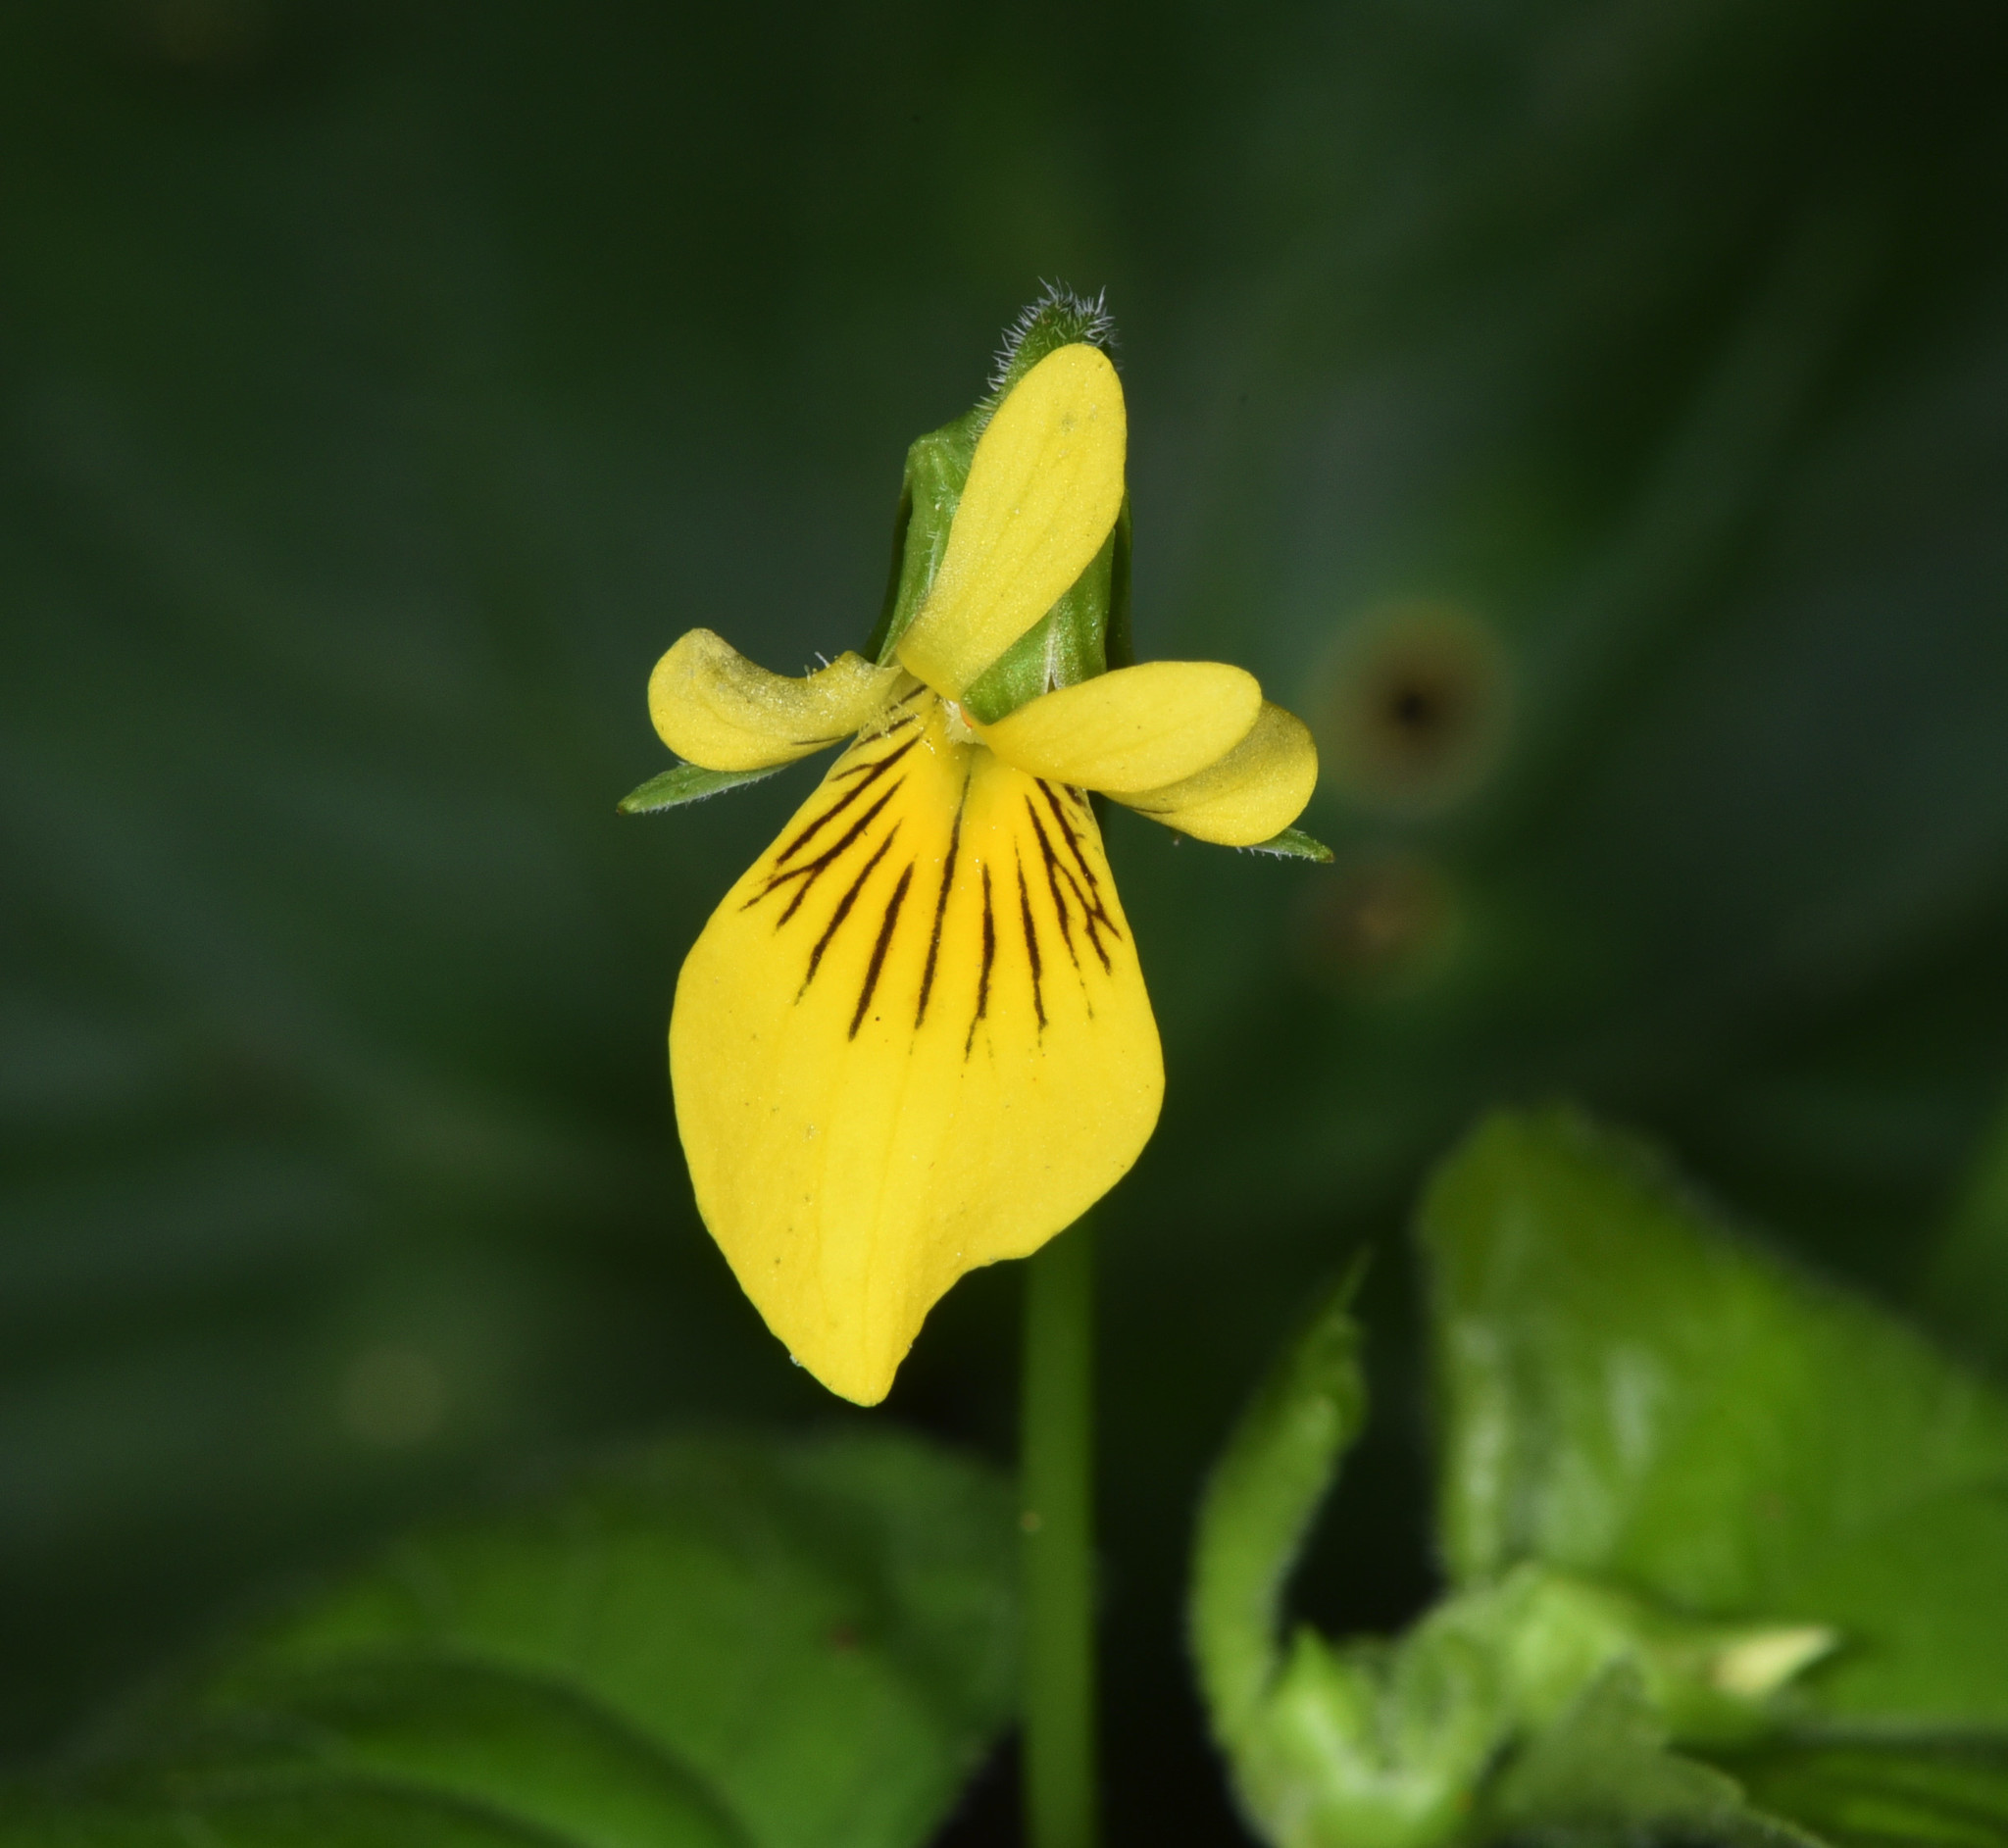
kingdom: Plantae
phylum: Tracheophyta
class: Magnoliopsida
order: Malpighiales
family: Violaceae
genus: Viola
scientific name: Viola glabella
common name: Stream violet
